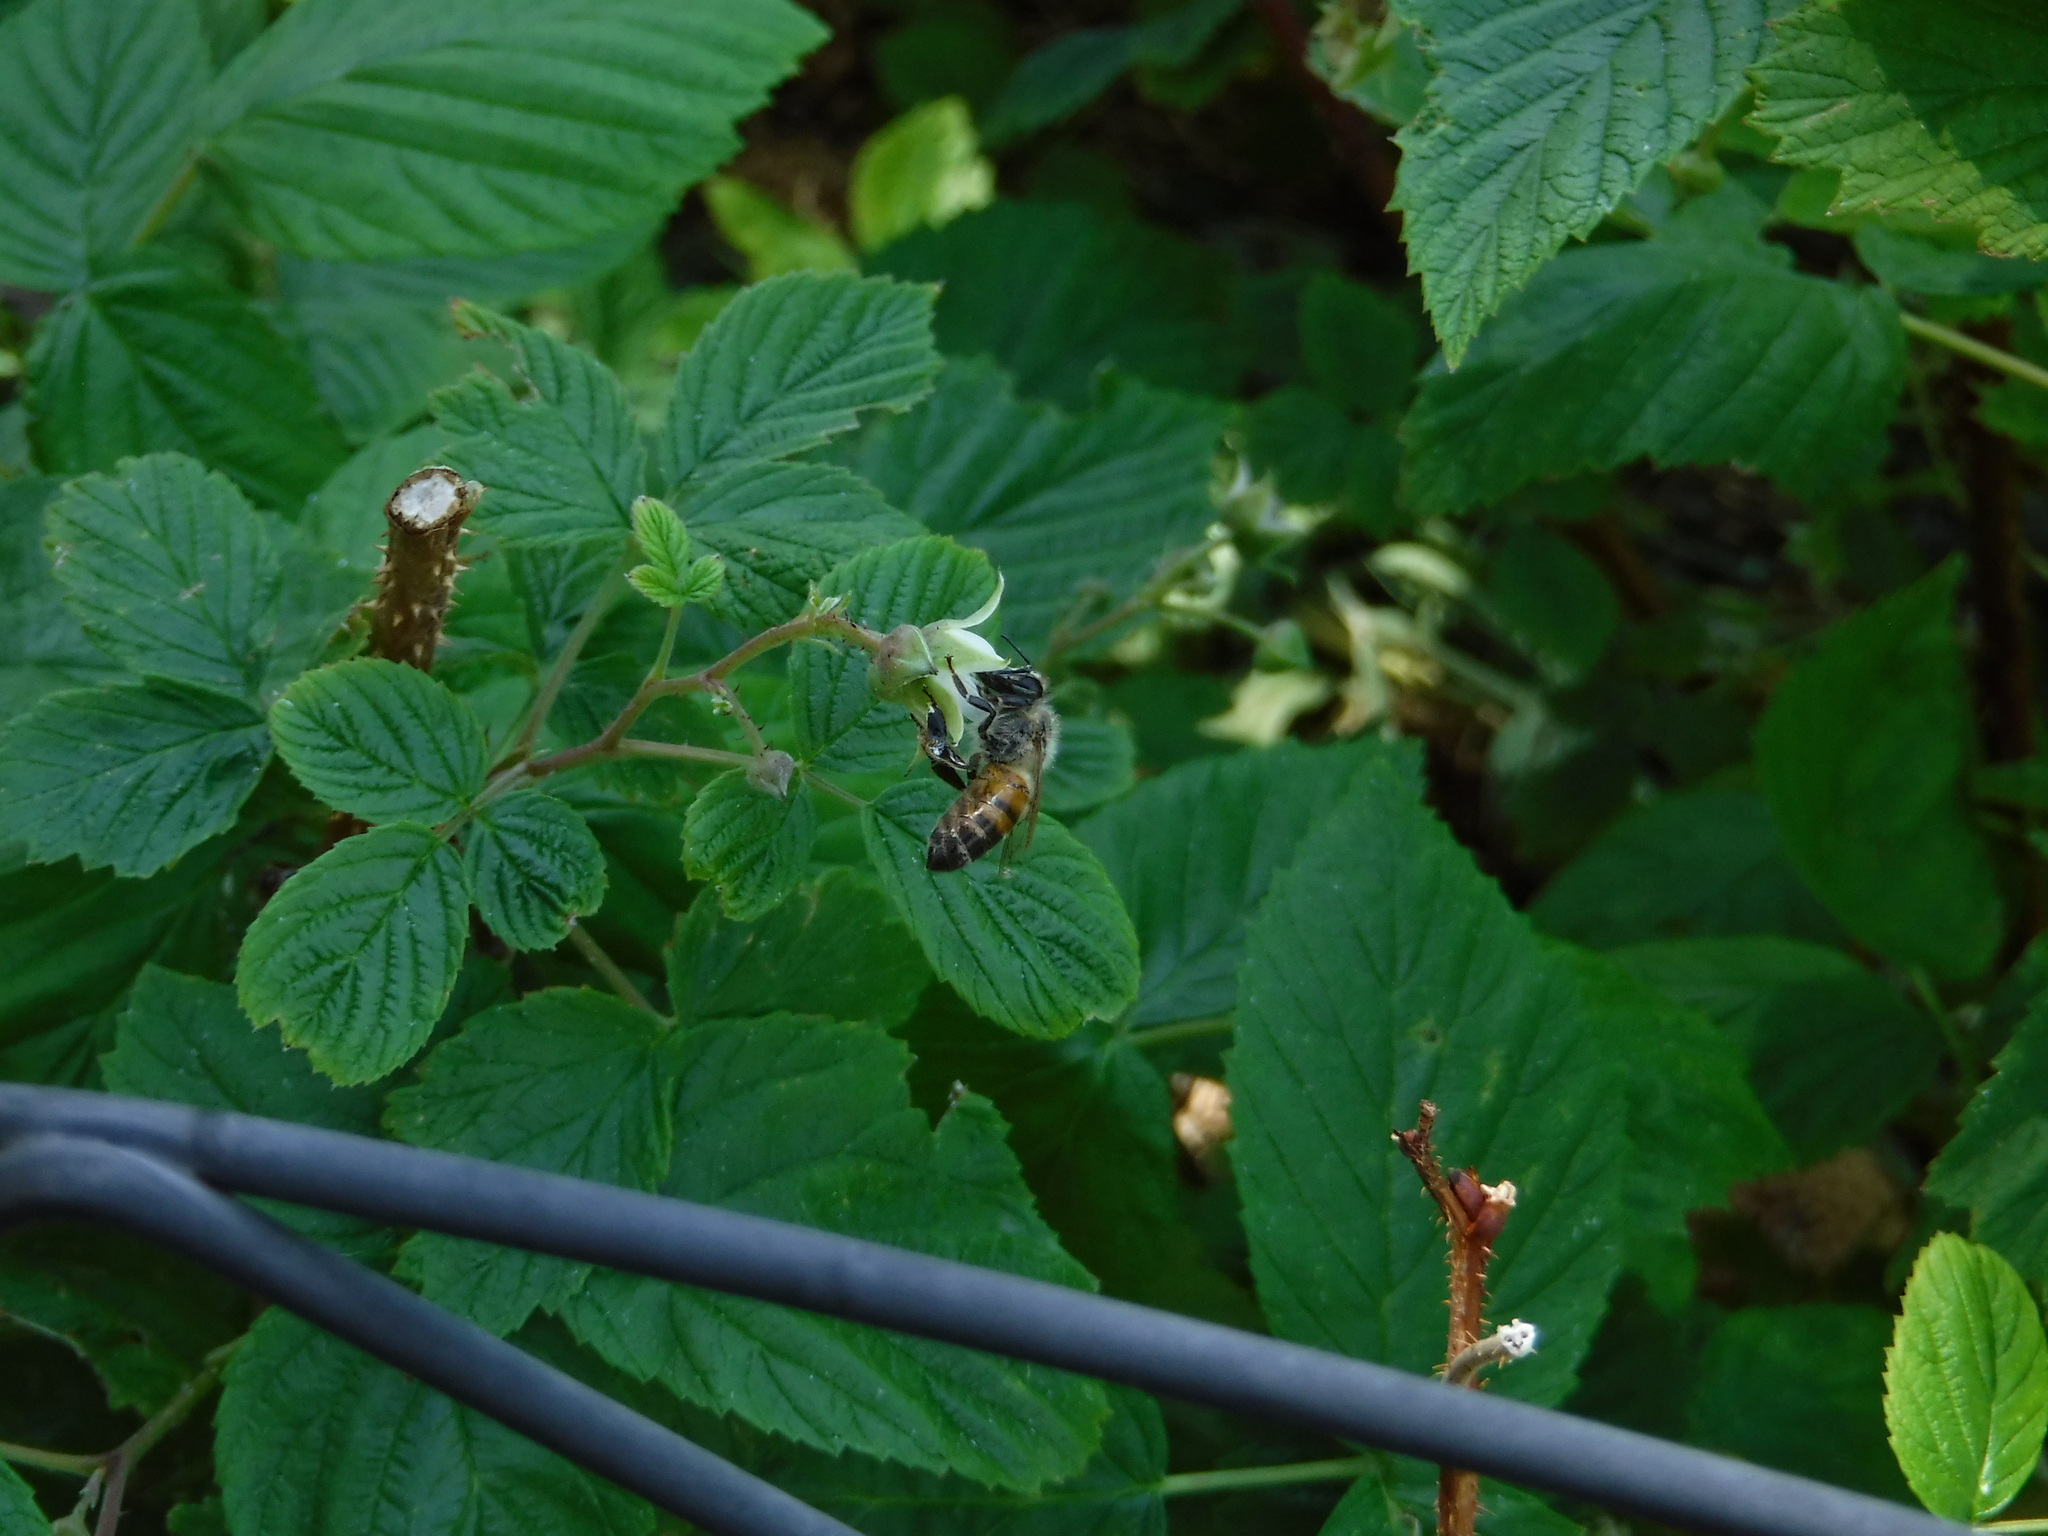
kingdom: Animalia
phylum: Arthropoda
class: Insecta
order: Hymenoptera
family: Apidae
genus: Apis
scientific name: Apis mellifera
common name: Honey bee
